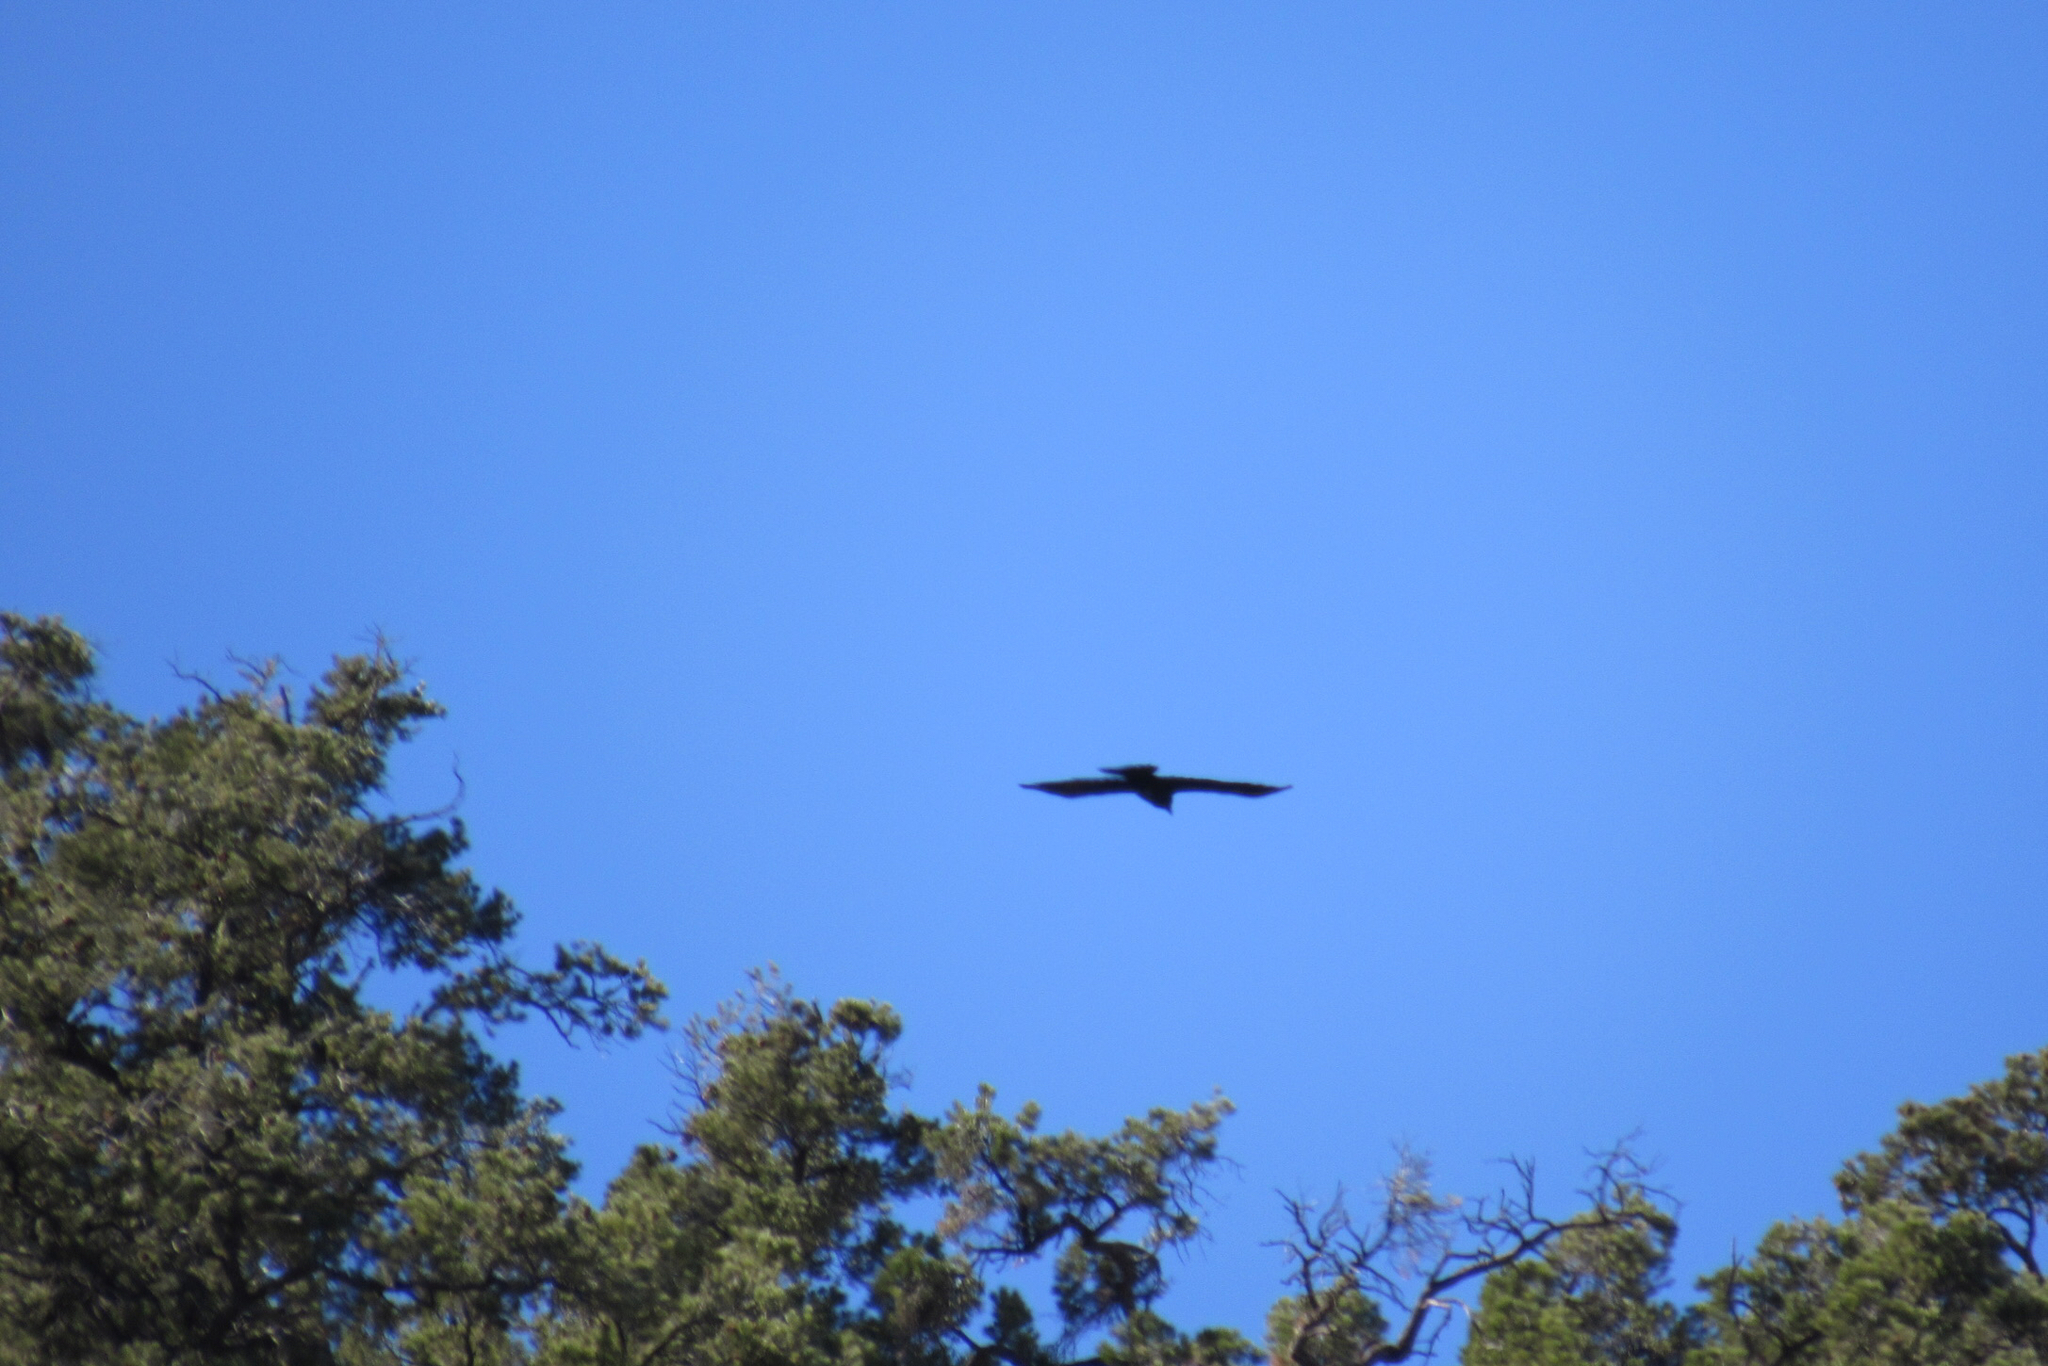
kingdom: Animalia
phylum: Chordata
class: Aves
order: Passeriformes
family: Corvidae
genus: Corvus
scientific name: Corvus corax
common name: Common raven
